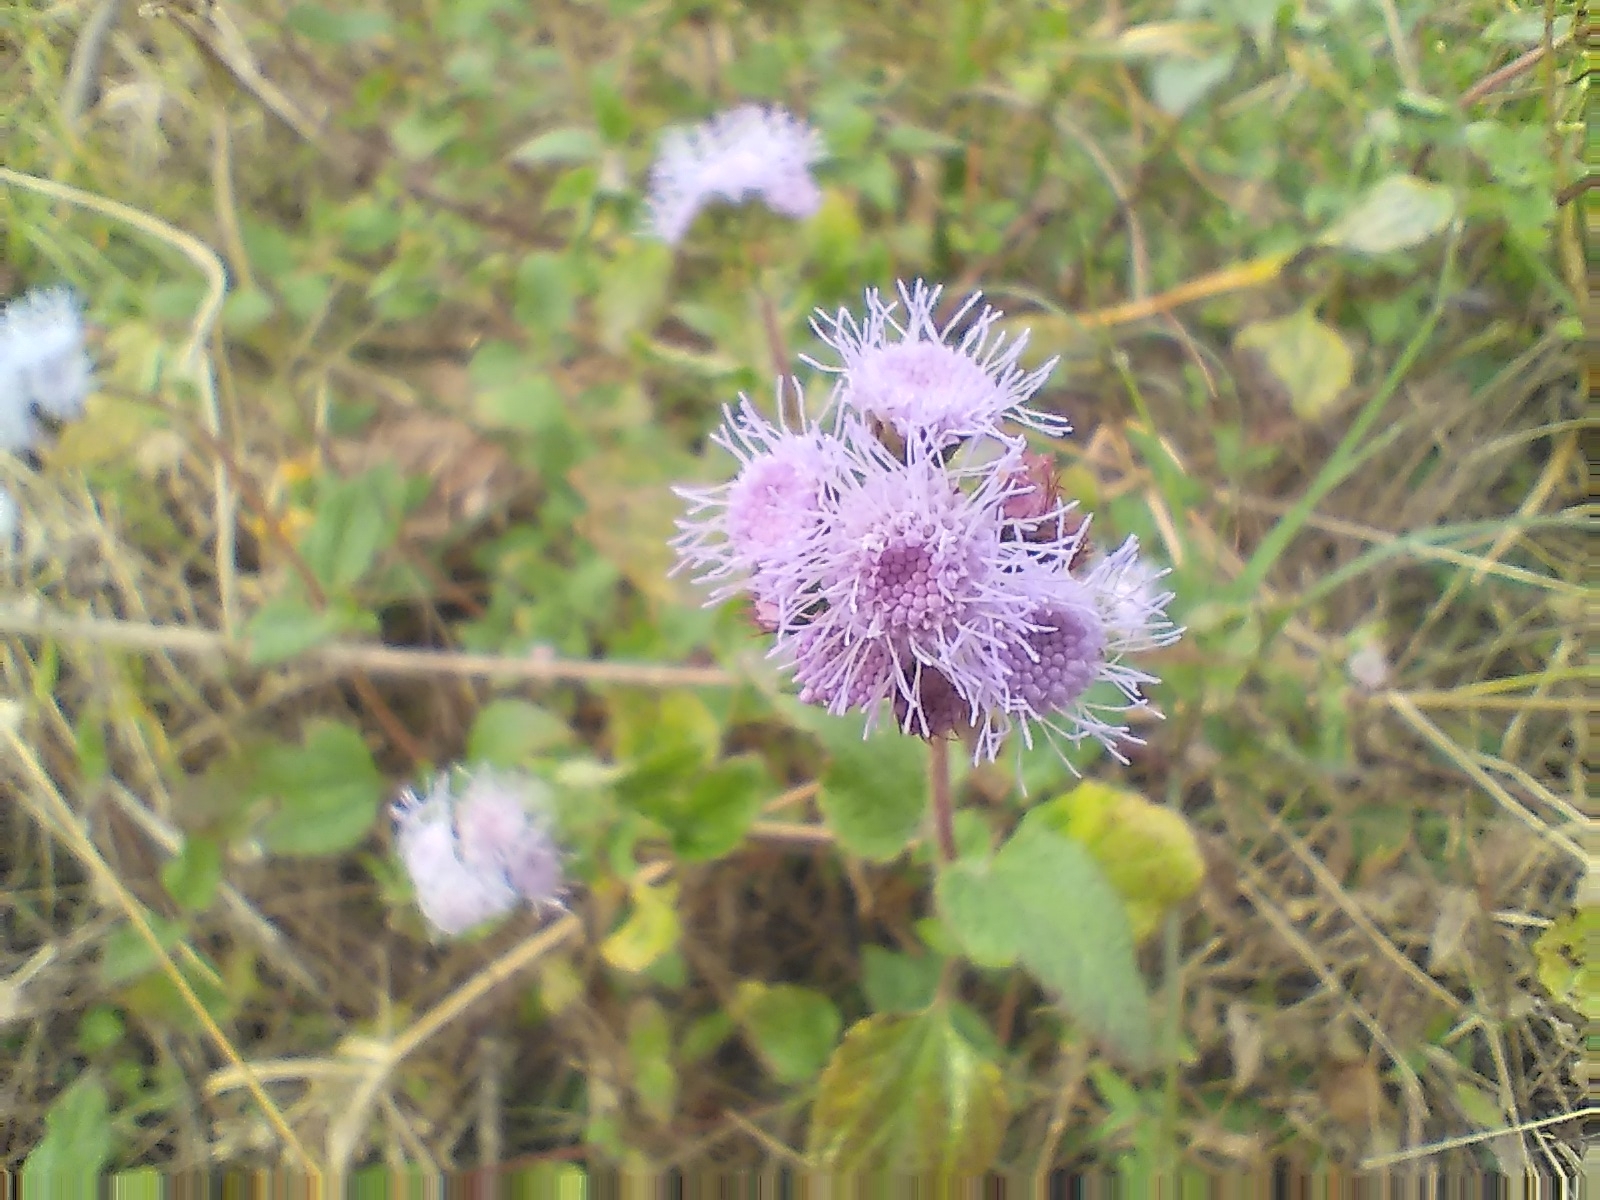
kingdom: Plantae
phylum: Tracheophyta
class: Magnoliopsida
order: Asterales
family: Asteraceae
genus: Ageratum
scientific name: Ageratum houstonianum
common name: Bluemink
